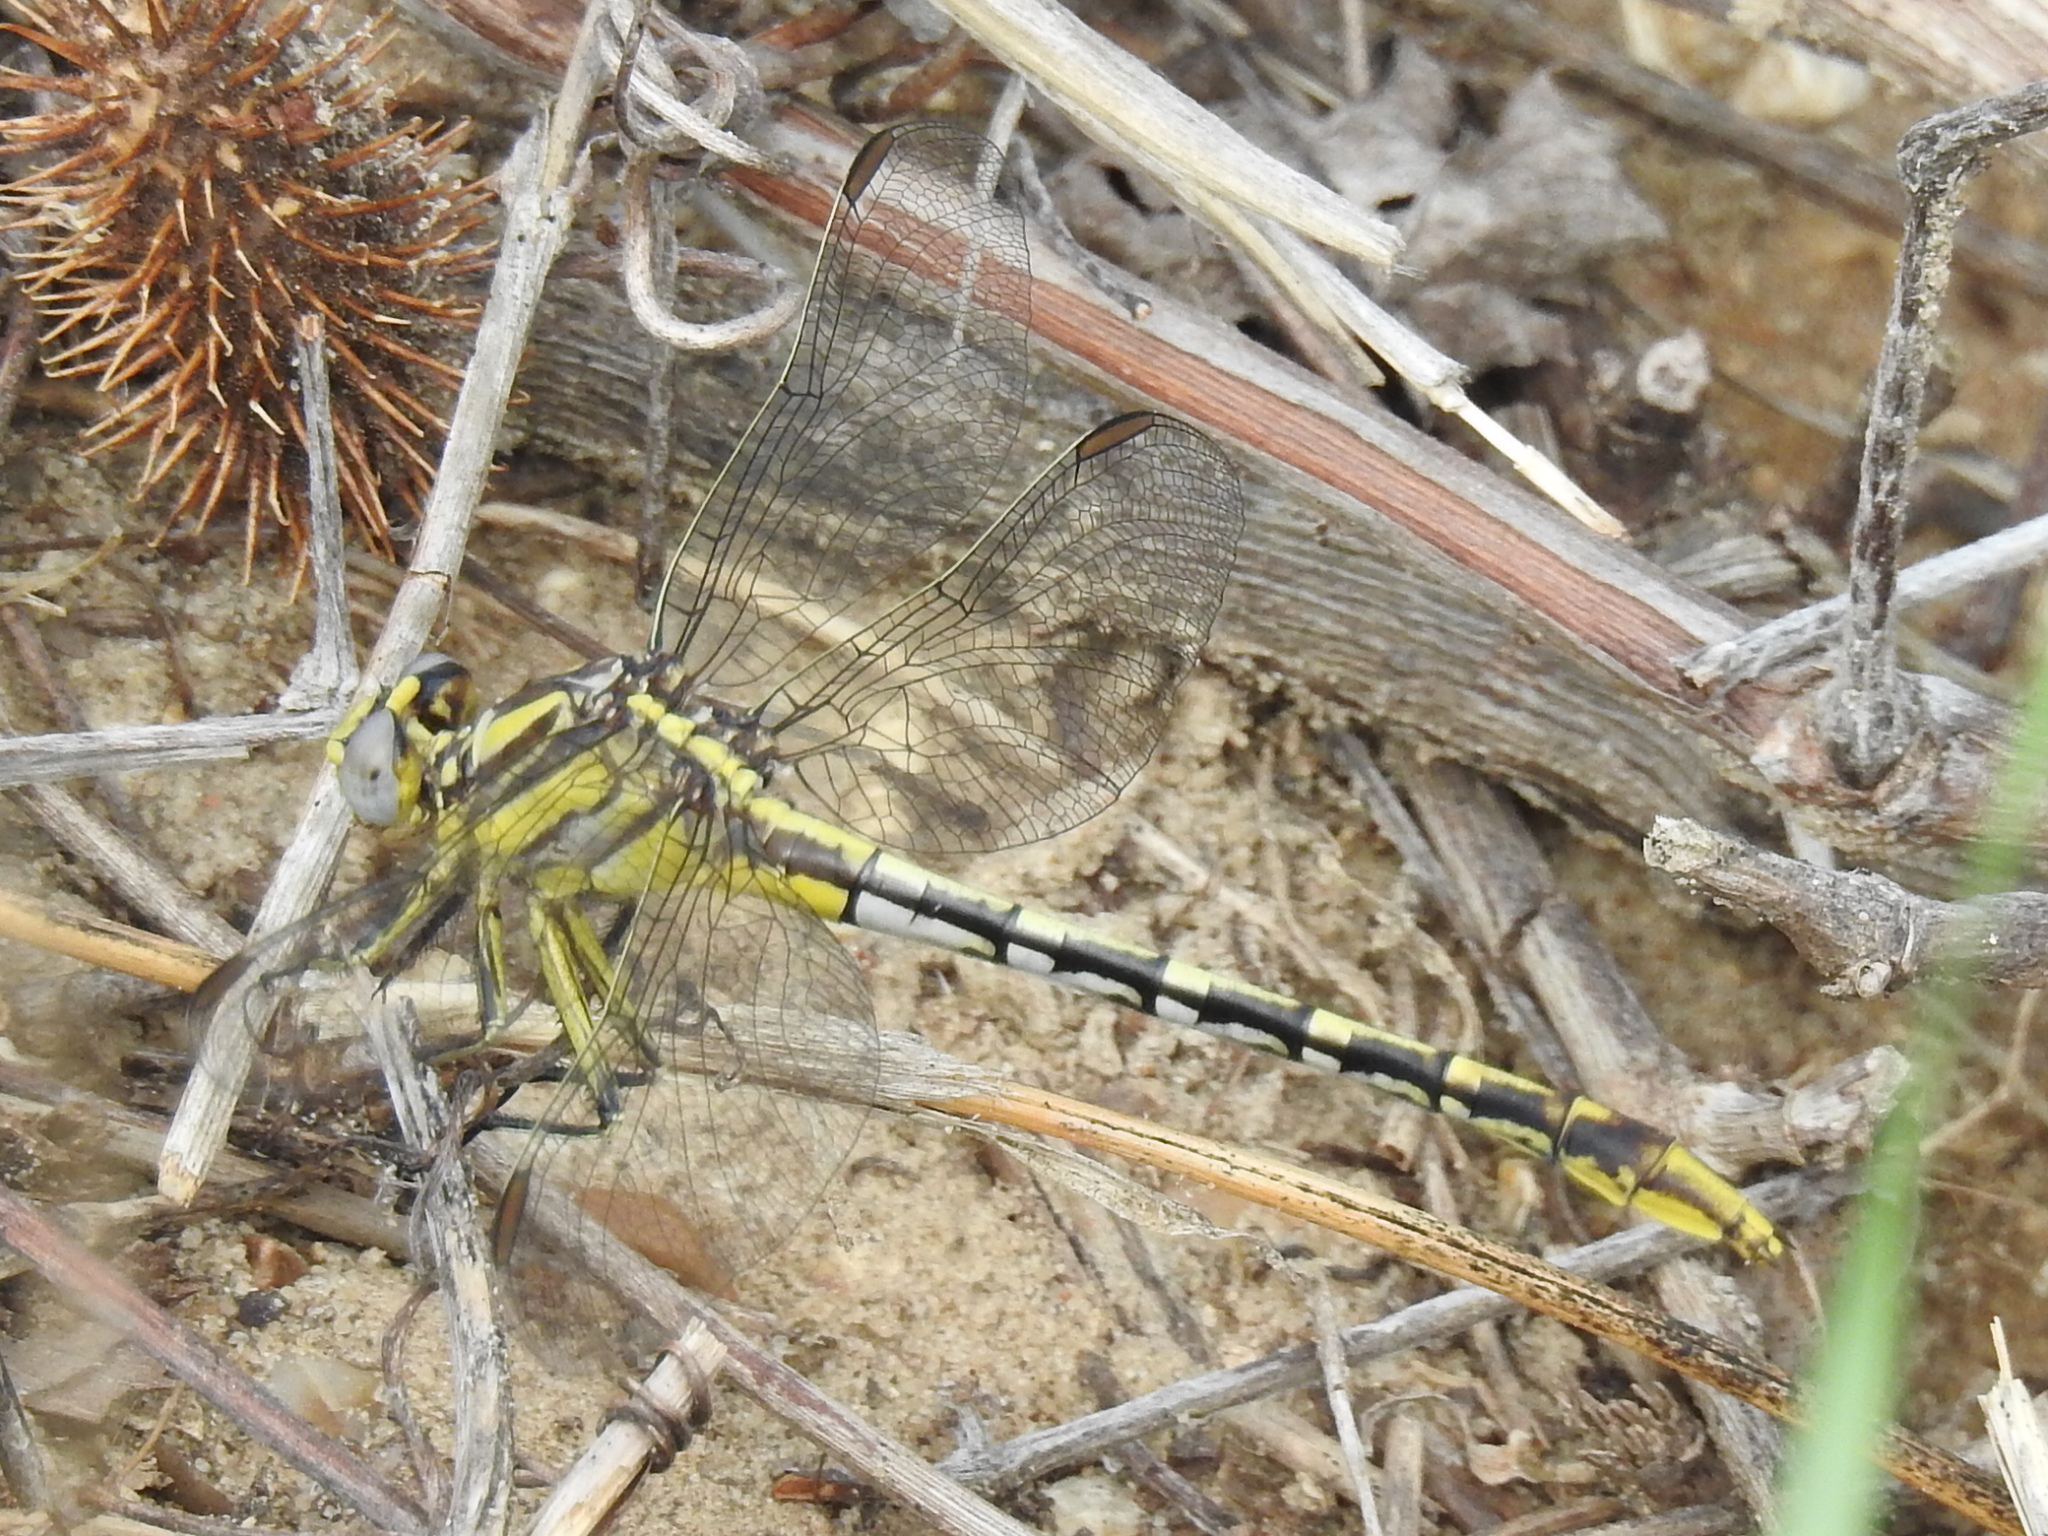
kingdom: Animalia
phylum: Arthropoda
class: Insecta
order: Odonata
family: Gomphidae
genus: Phanogomphus
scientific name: Phanogomphus militaris
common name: Sulphur-tipped clubtail
